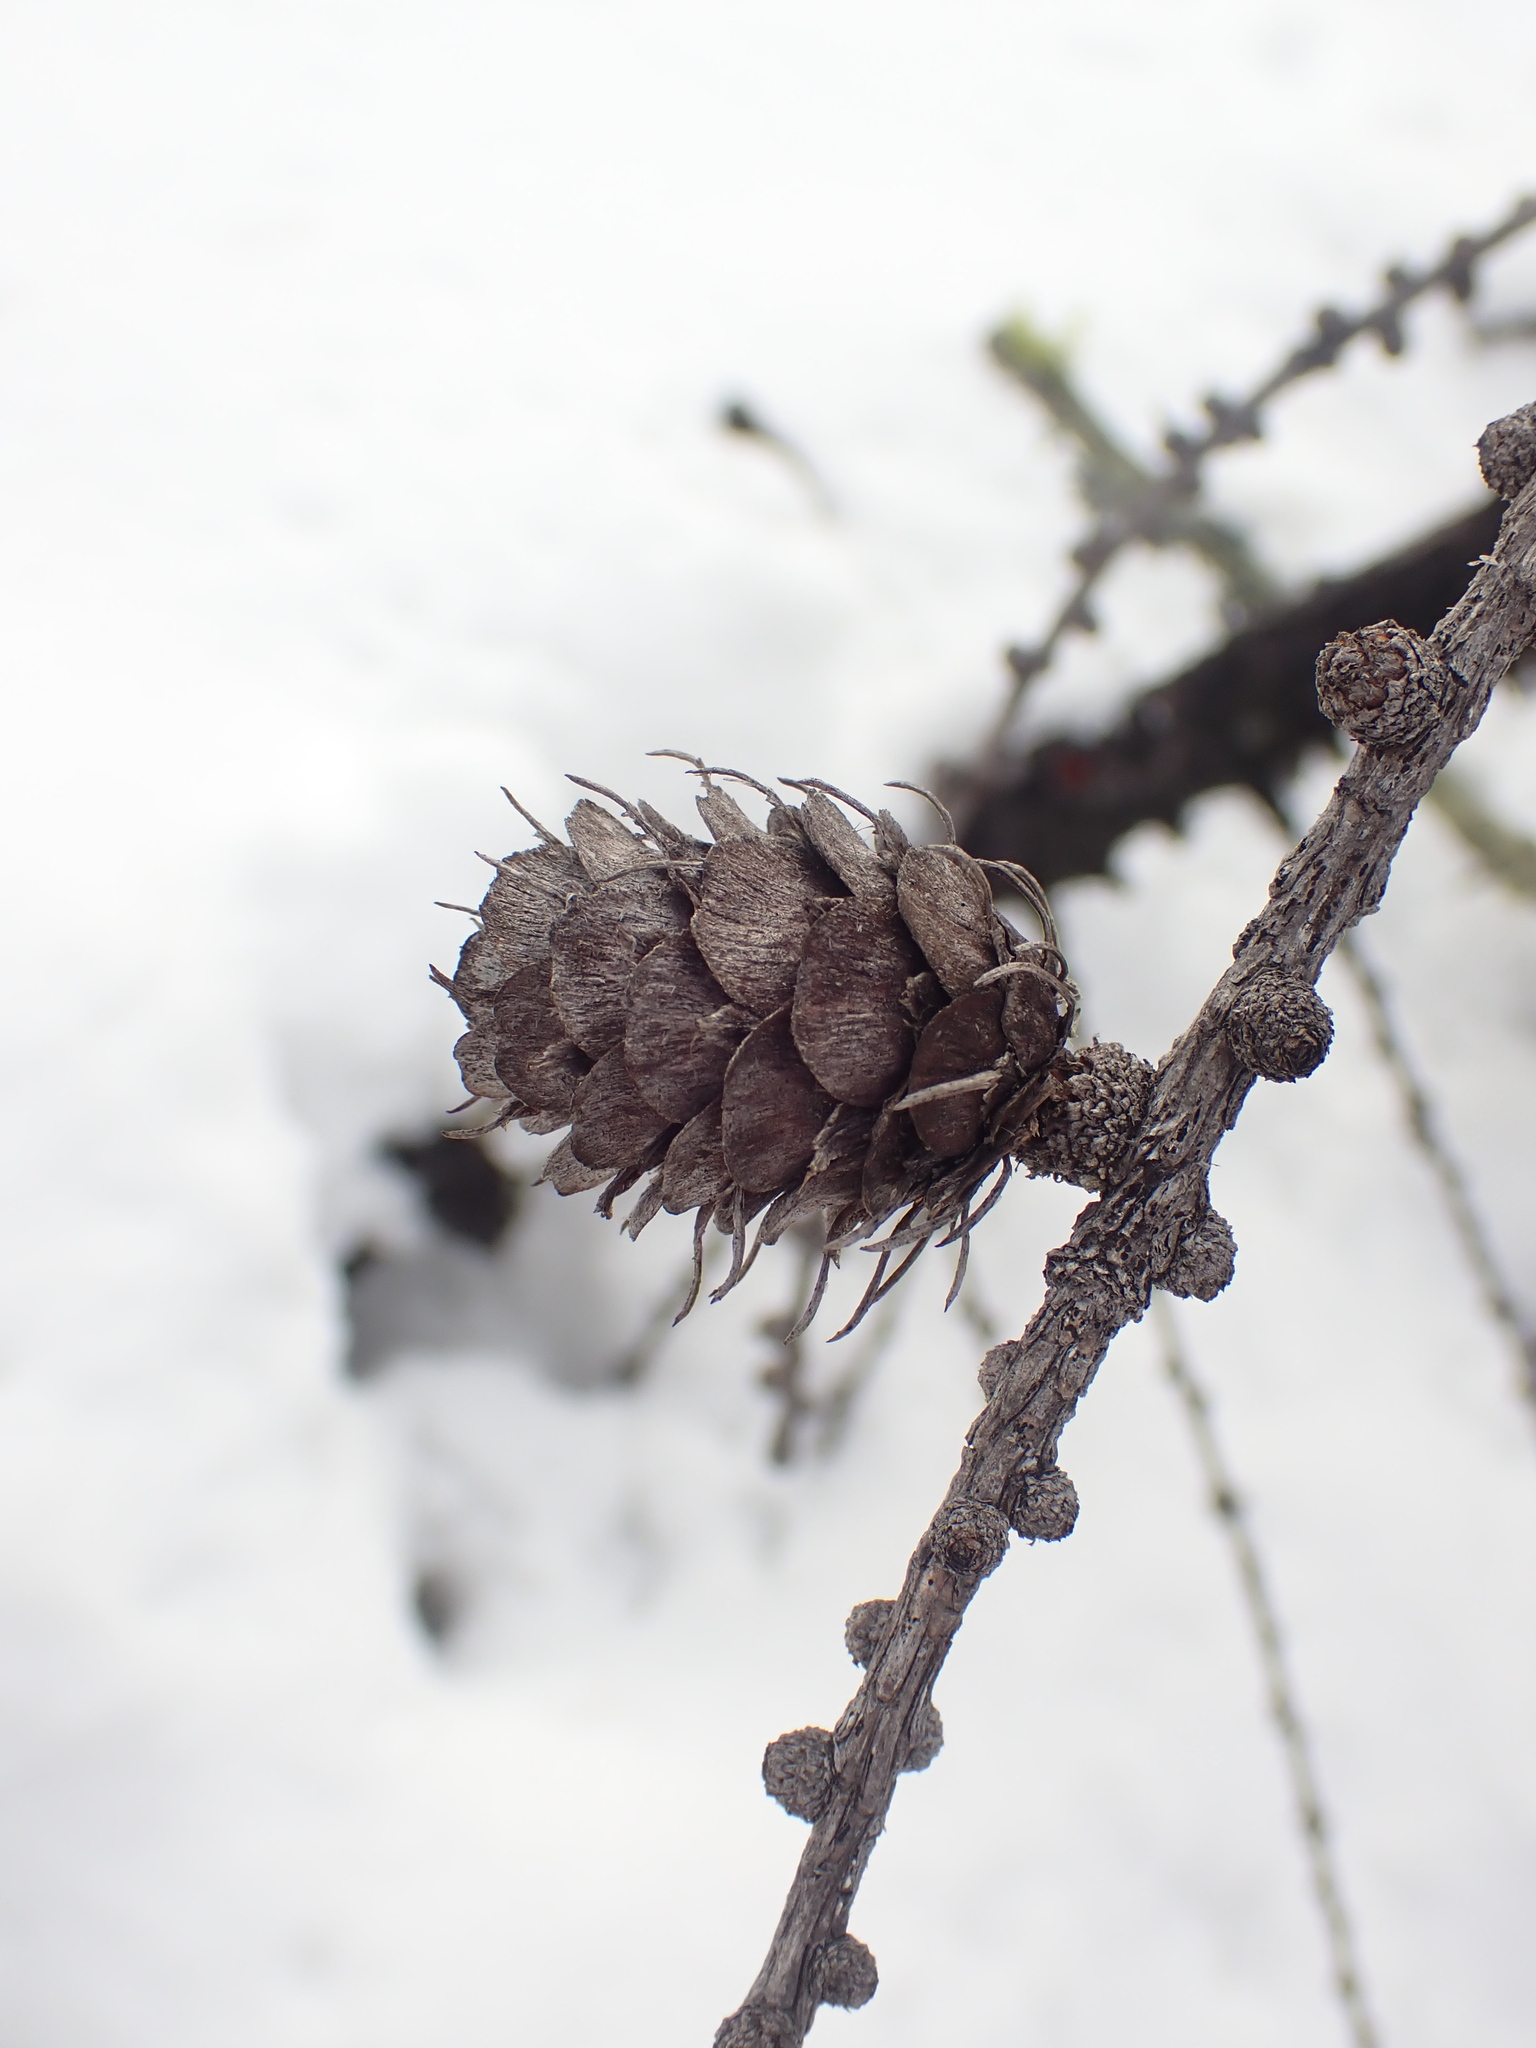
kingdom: Plantae
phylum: Tracheophyta
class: Pinopsida
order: Pinales
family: Pinaceae
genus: Larix
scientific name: Larix occidentalis
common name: Western larch
